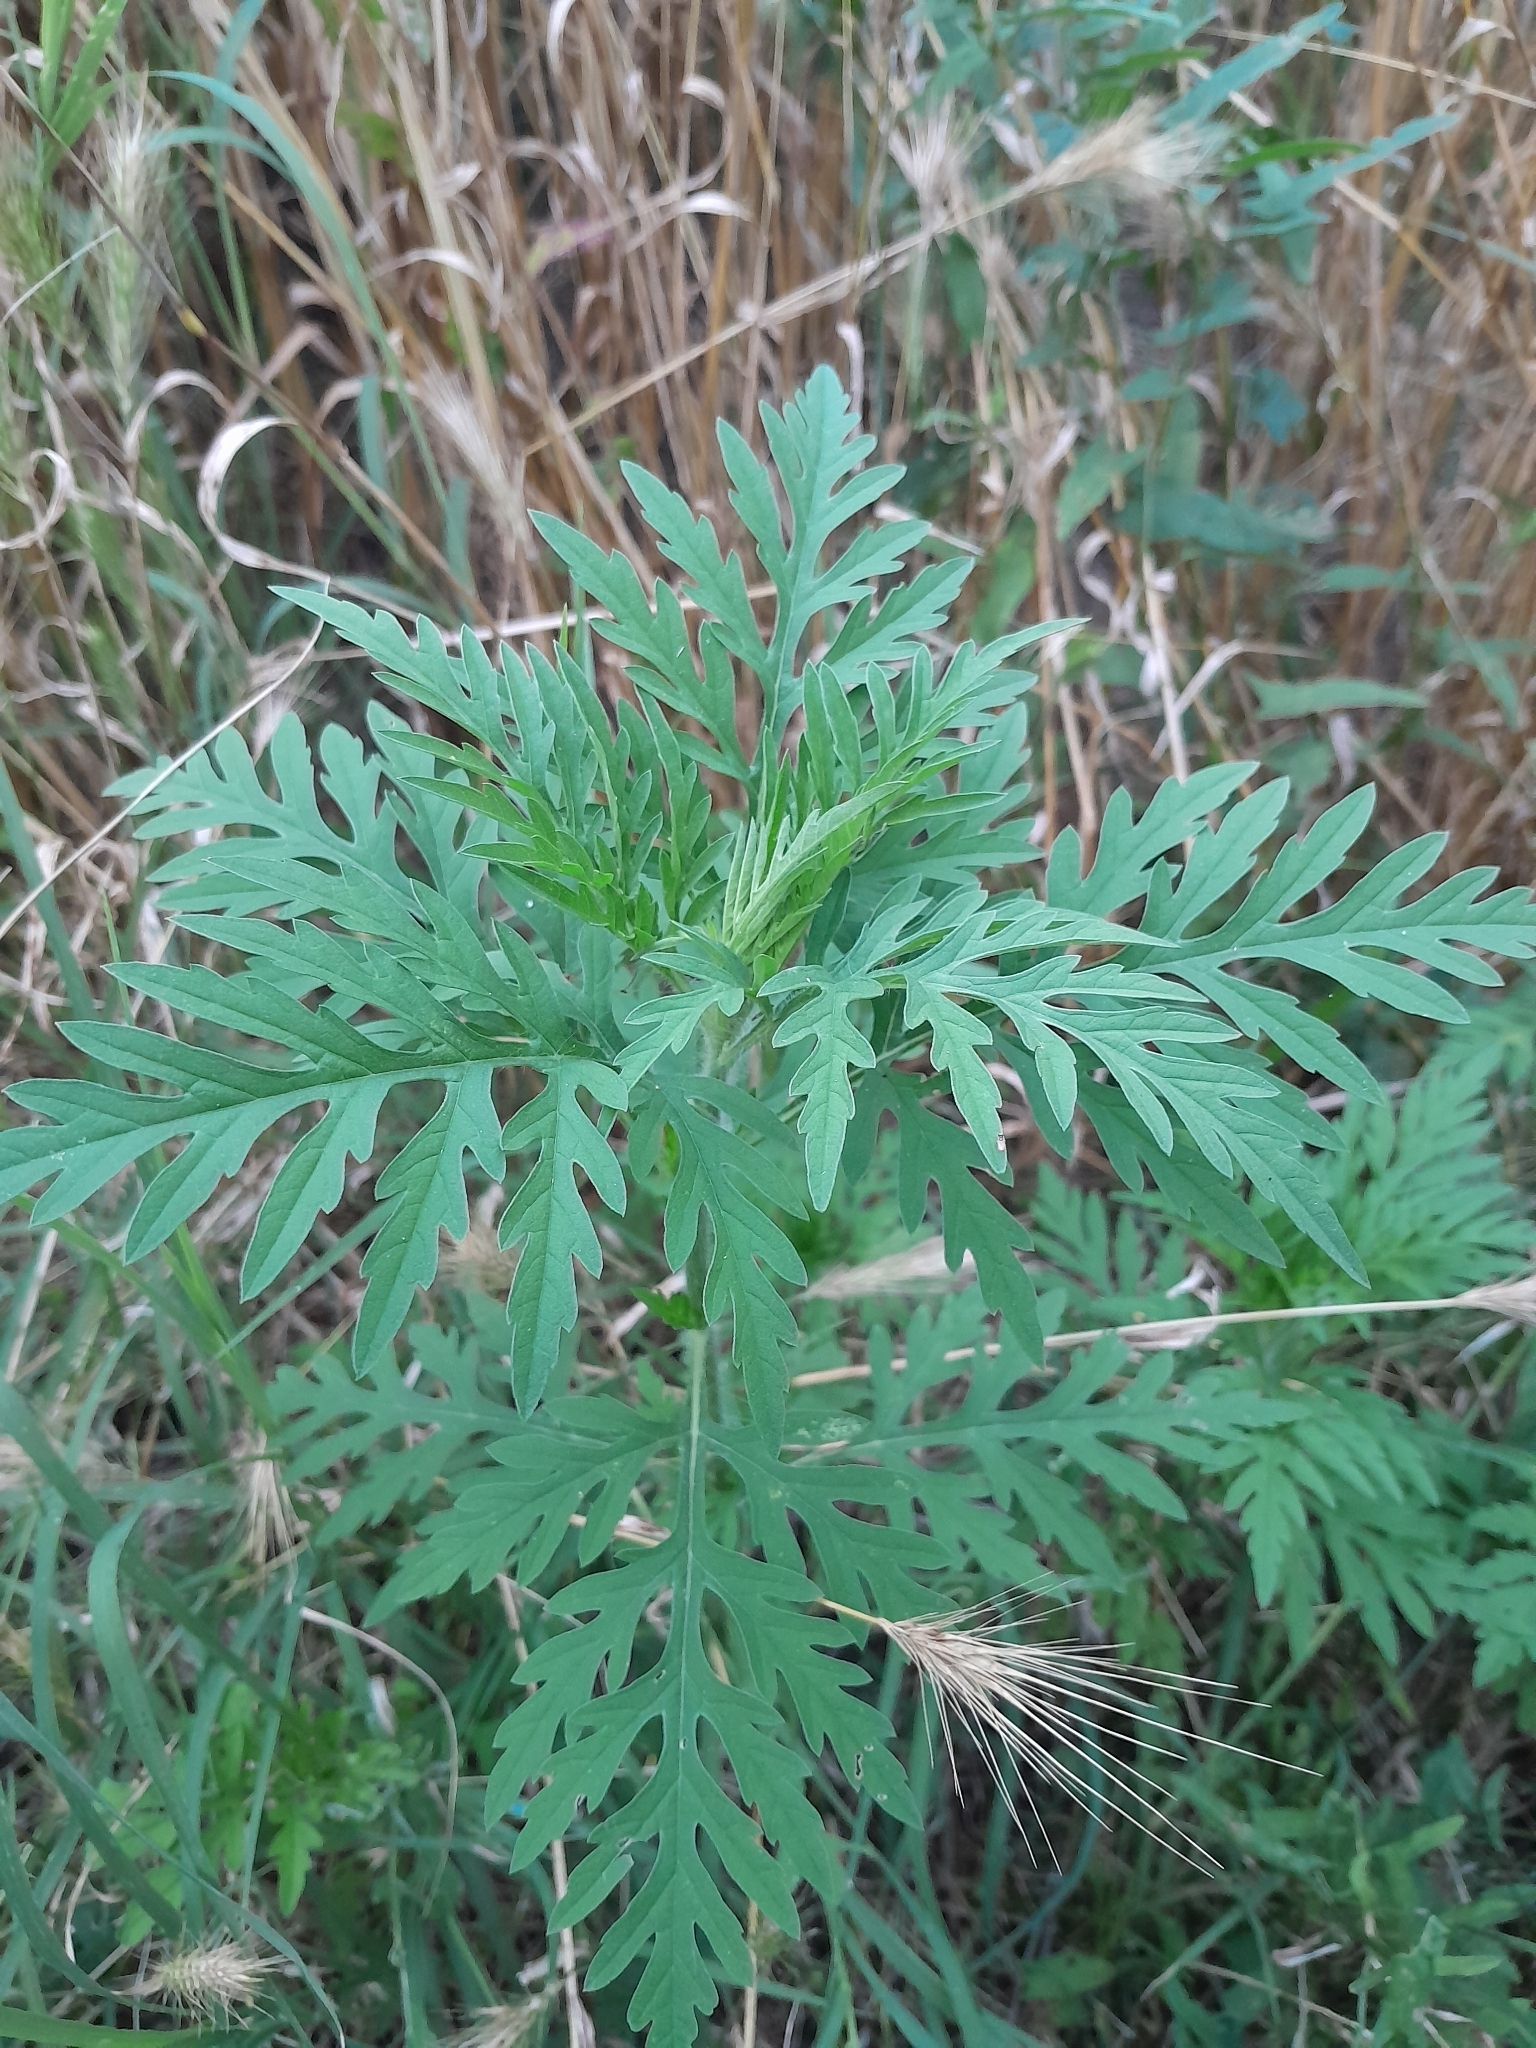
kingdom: Plantae
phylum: Tracheophyta
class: Magnoliopsida
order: Asterales
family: Asteraceae
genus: Ambrosia
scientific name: Ambrosia artemisiifolia
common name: Annual ragweed
